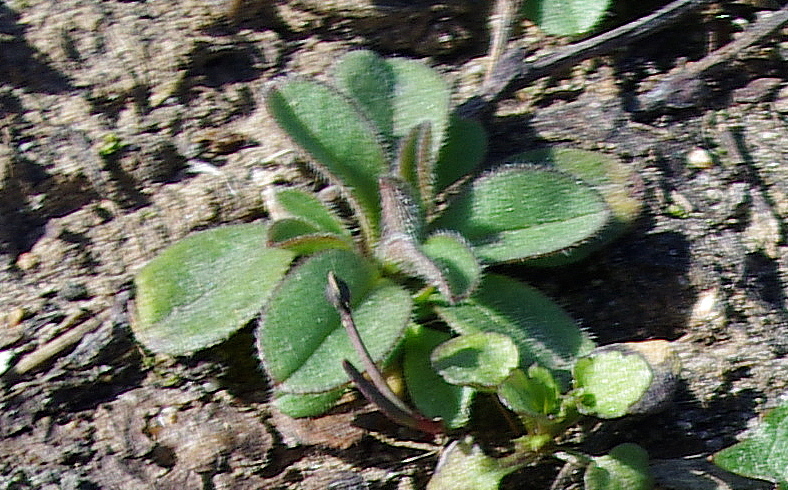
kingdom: Plantae
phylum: Tracheophyta
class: Magnoliopsida
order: Boraginales
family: Boraginaceae
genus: Myosotis
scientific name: Myosotis sparsiflora
